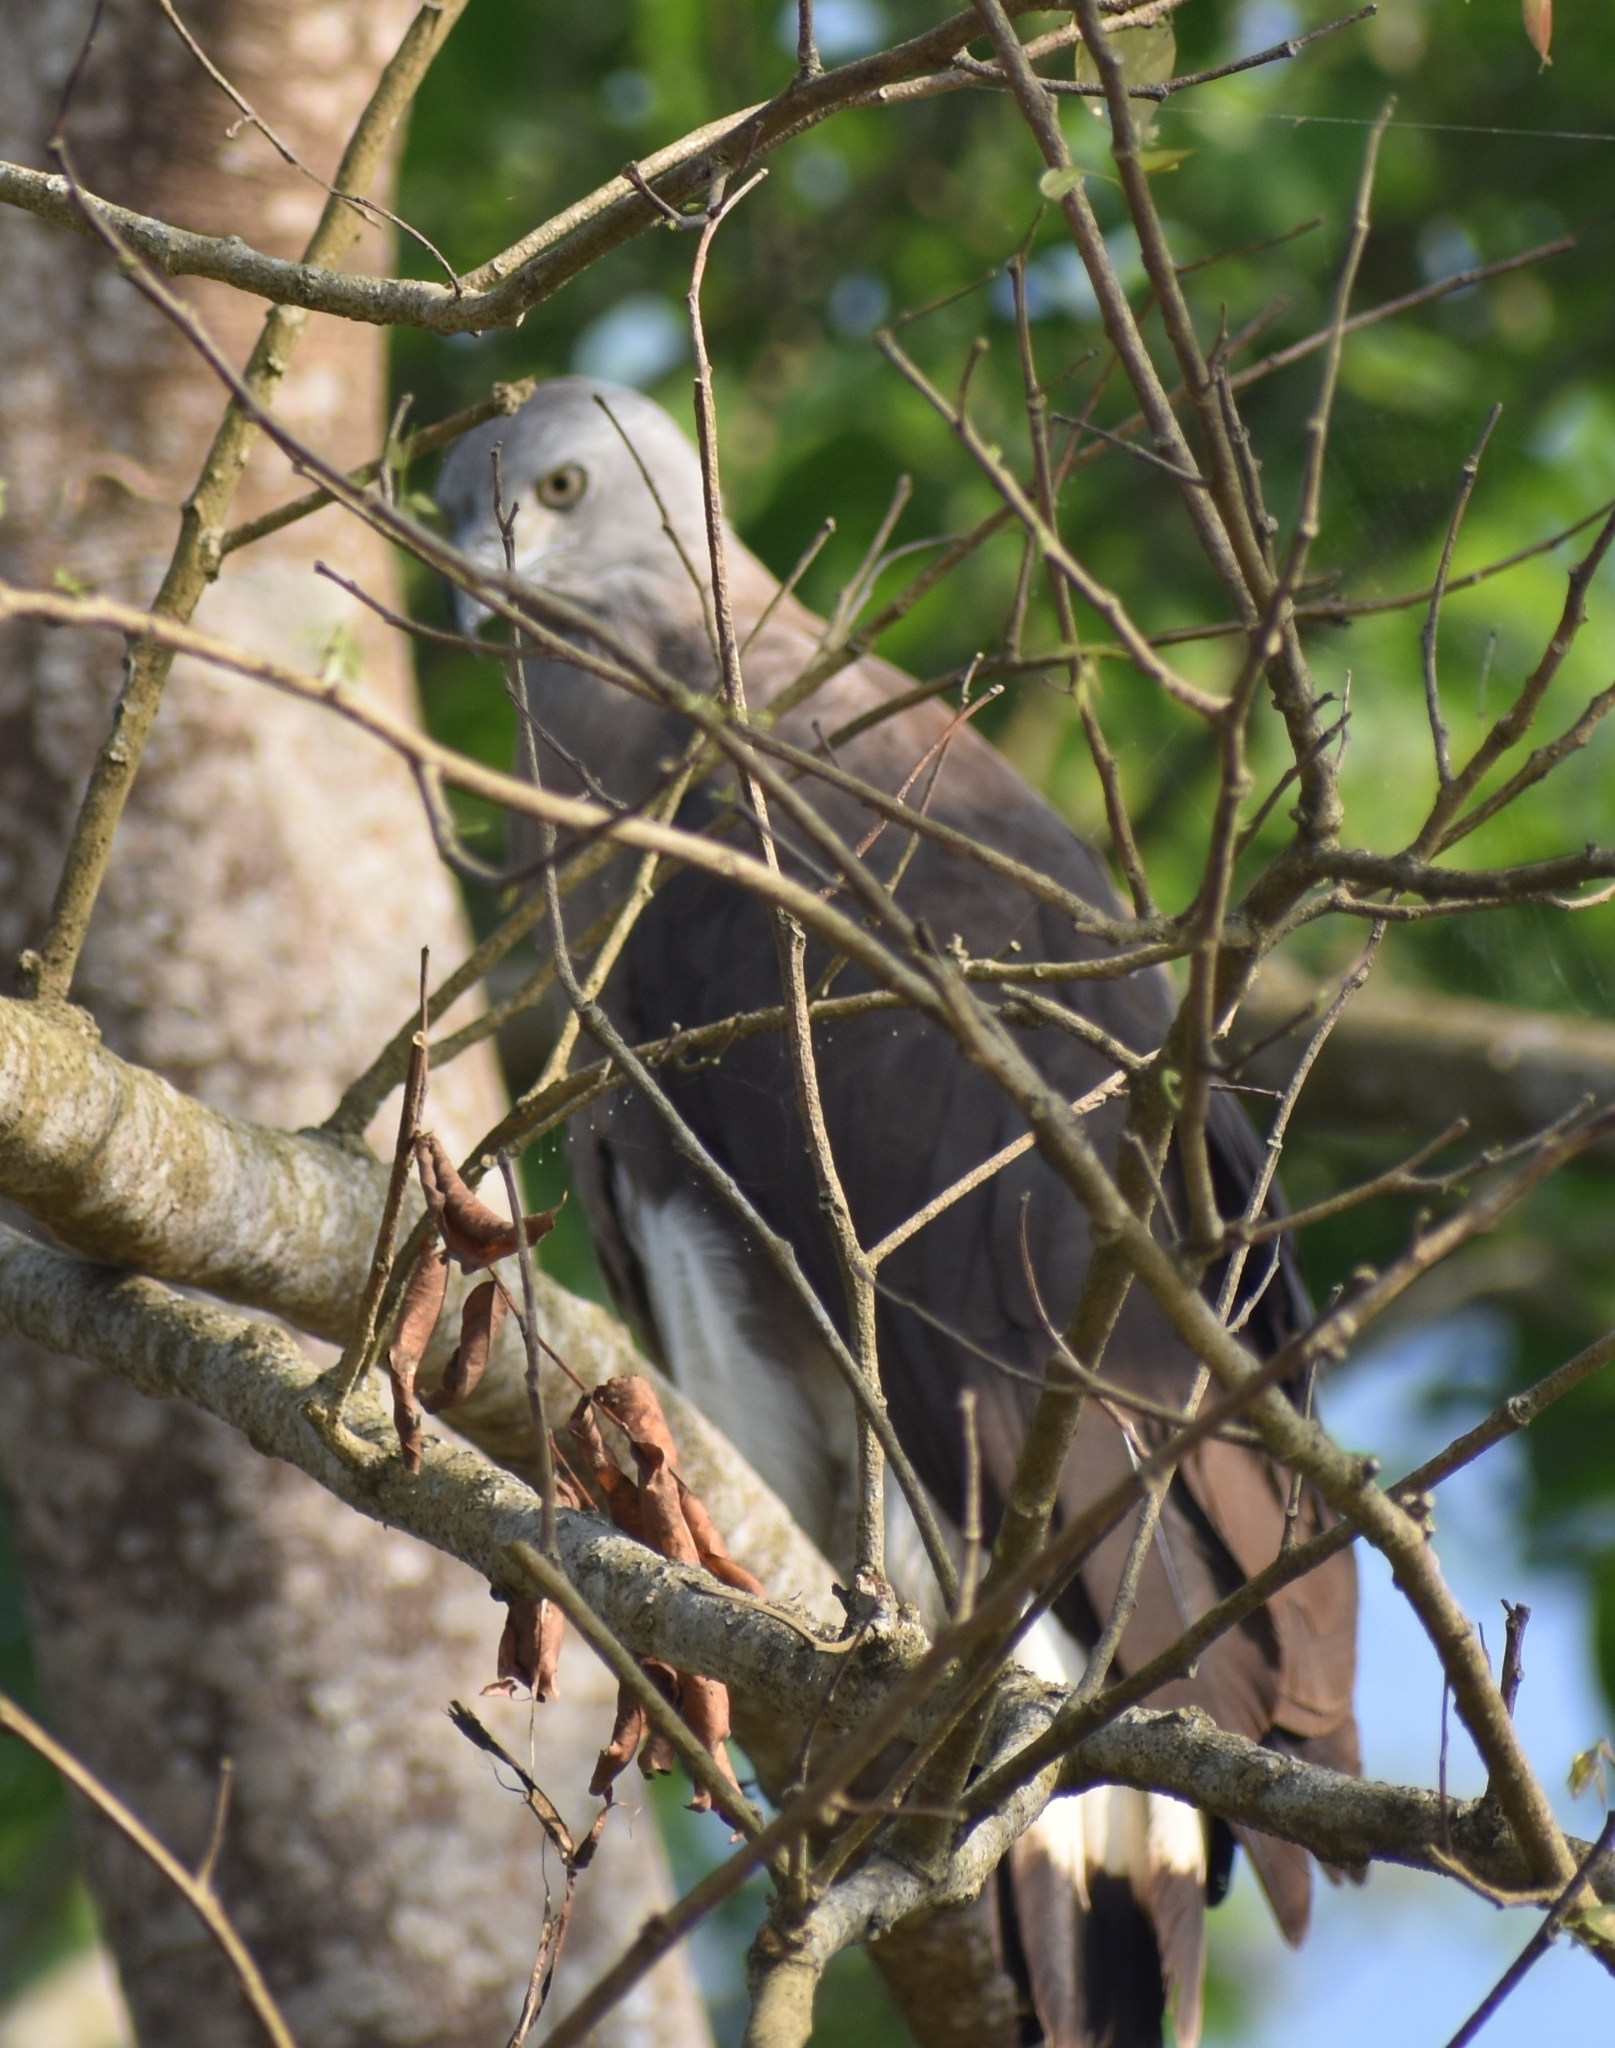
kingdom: Animalia
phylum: Chordata
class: Aves
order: Accipitriformes
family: Accipitridae
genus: Icthyophaga
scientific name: Icthyophaga ichthyaetus
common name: Grey-headed fish eagle
